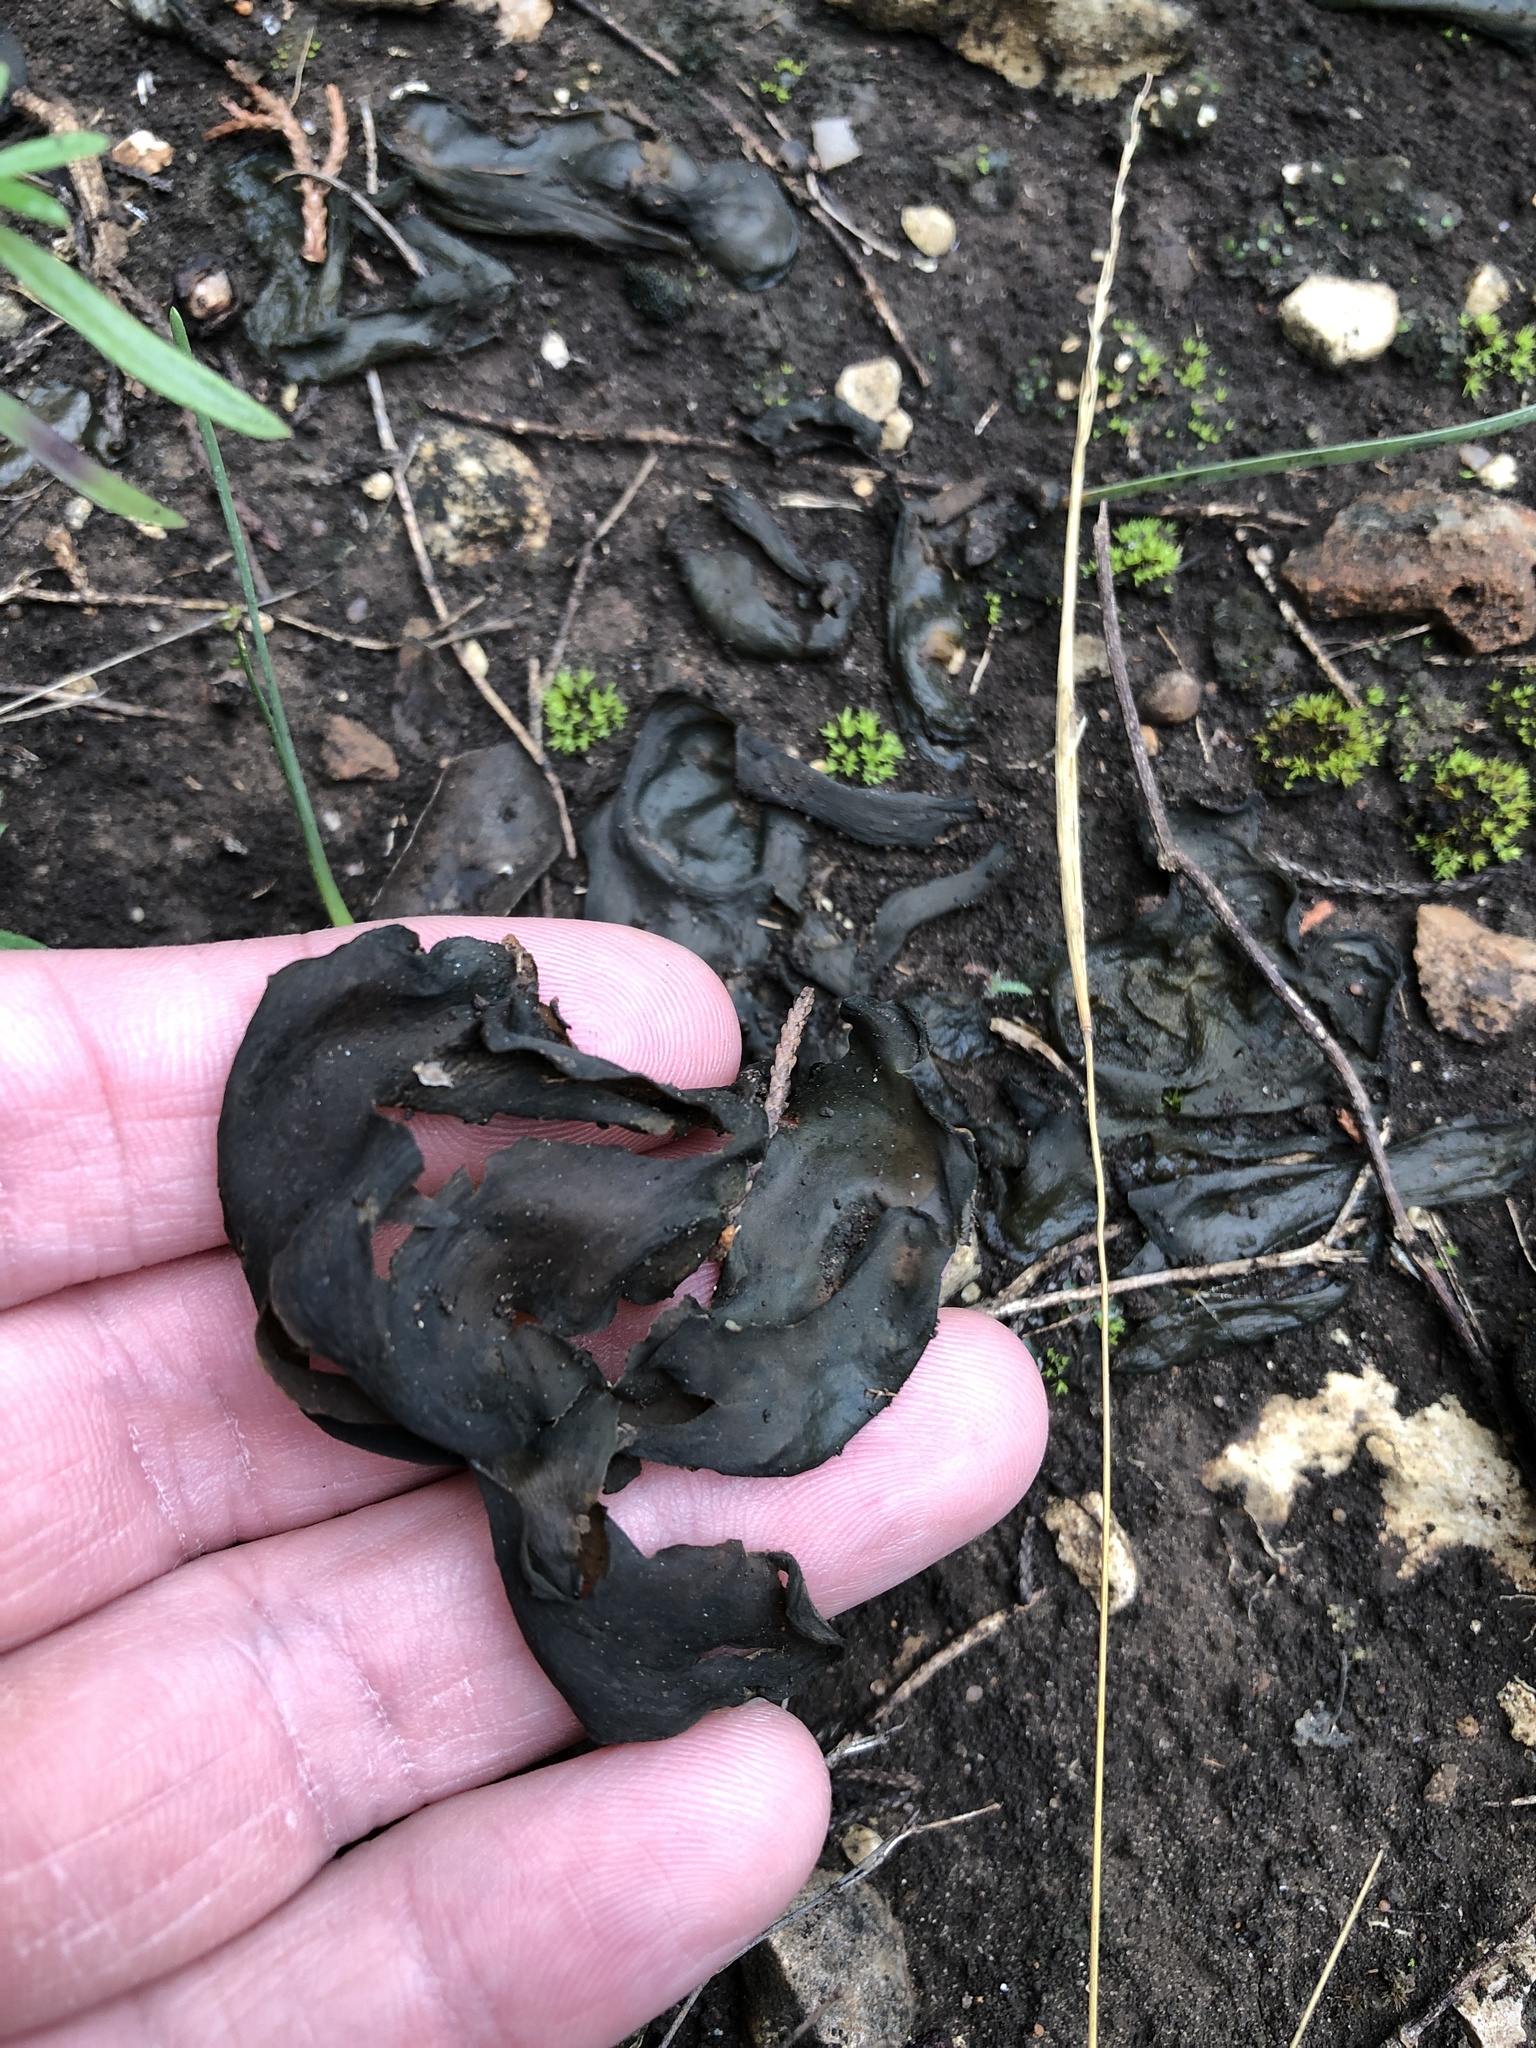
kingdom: Bacteria
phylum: Cyanobacteria
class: Cyanobacteriia
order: Cyanobacteriales
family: Nostocaceae
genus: Nostoc
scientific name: Nostoc commune
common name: Star jelly
